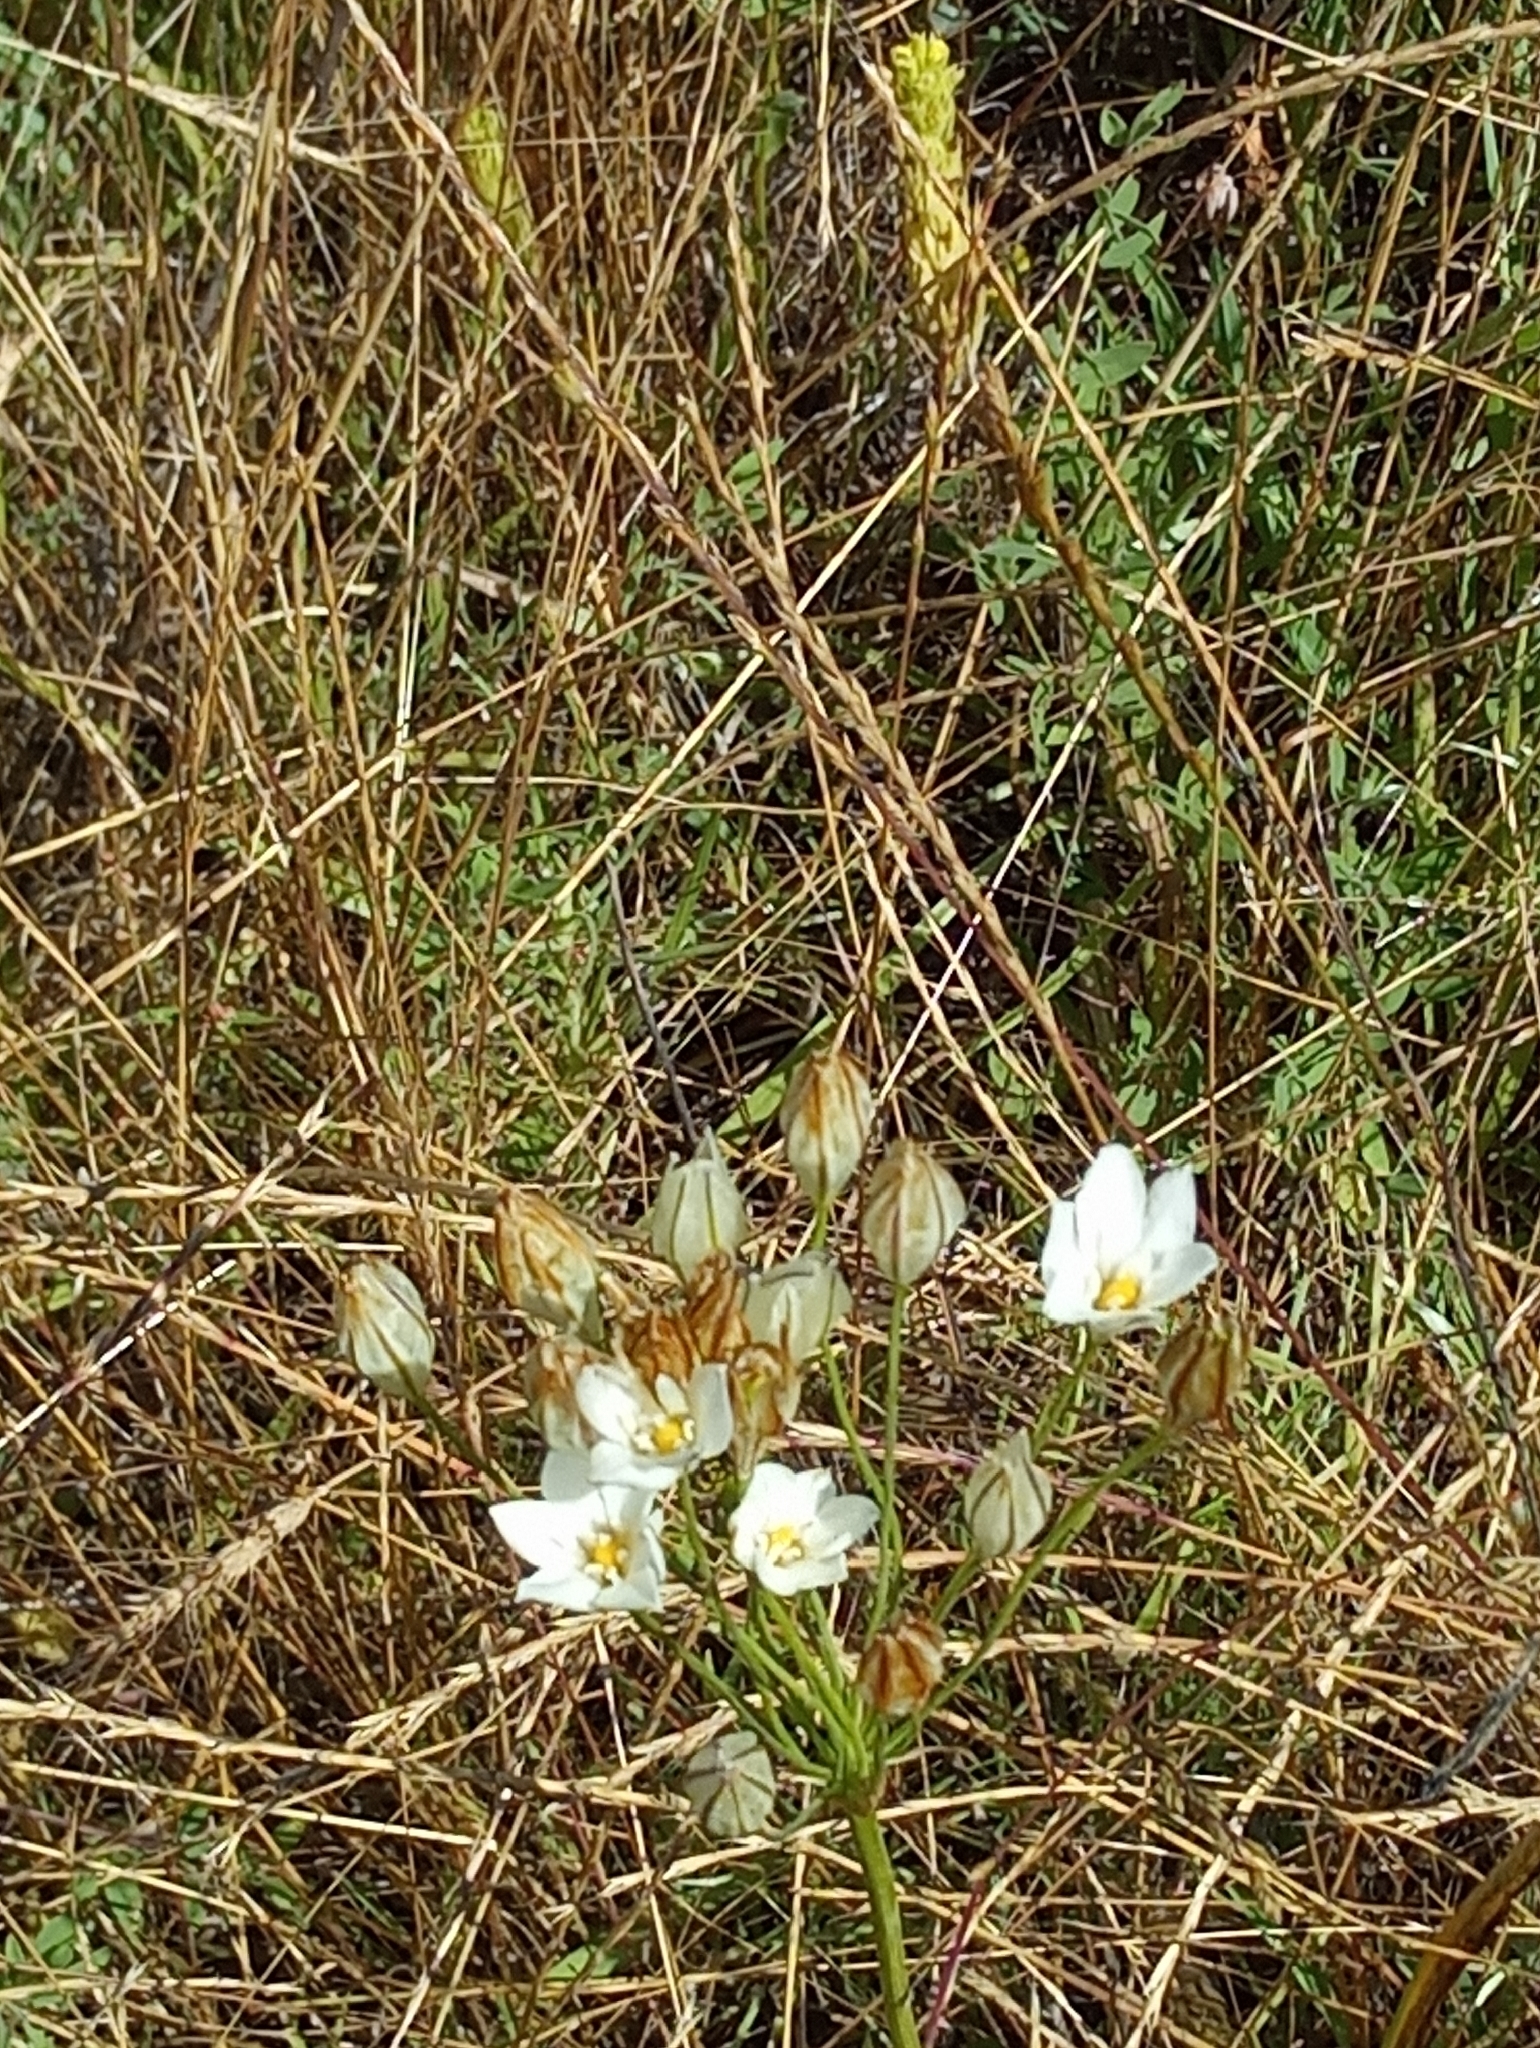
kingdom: Plantae
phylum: Tracheophyta
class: Liliopsida
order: Asparagales
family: Asparagaceae
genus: Triteleia
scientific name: Triteleia hyacinthina
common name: White brodiaea
